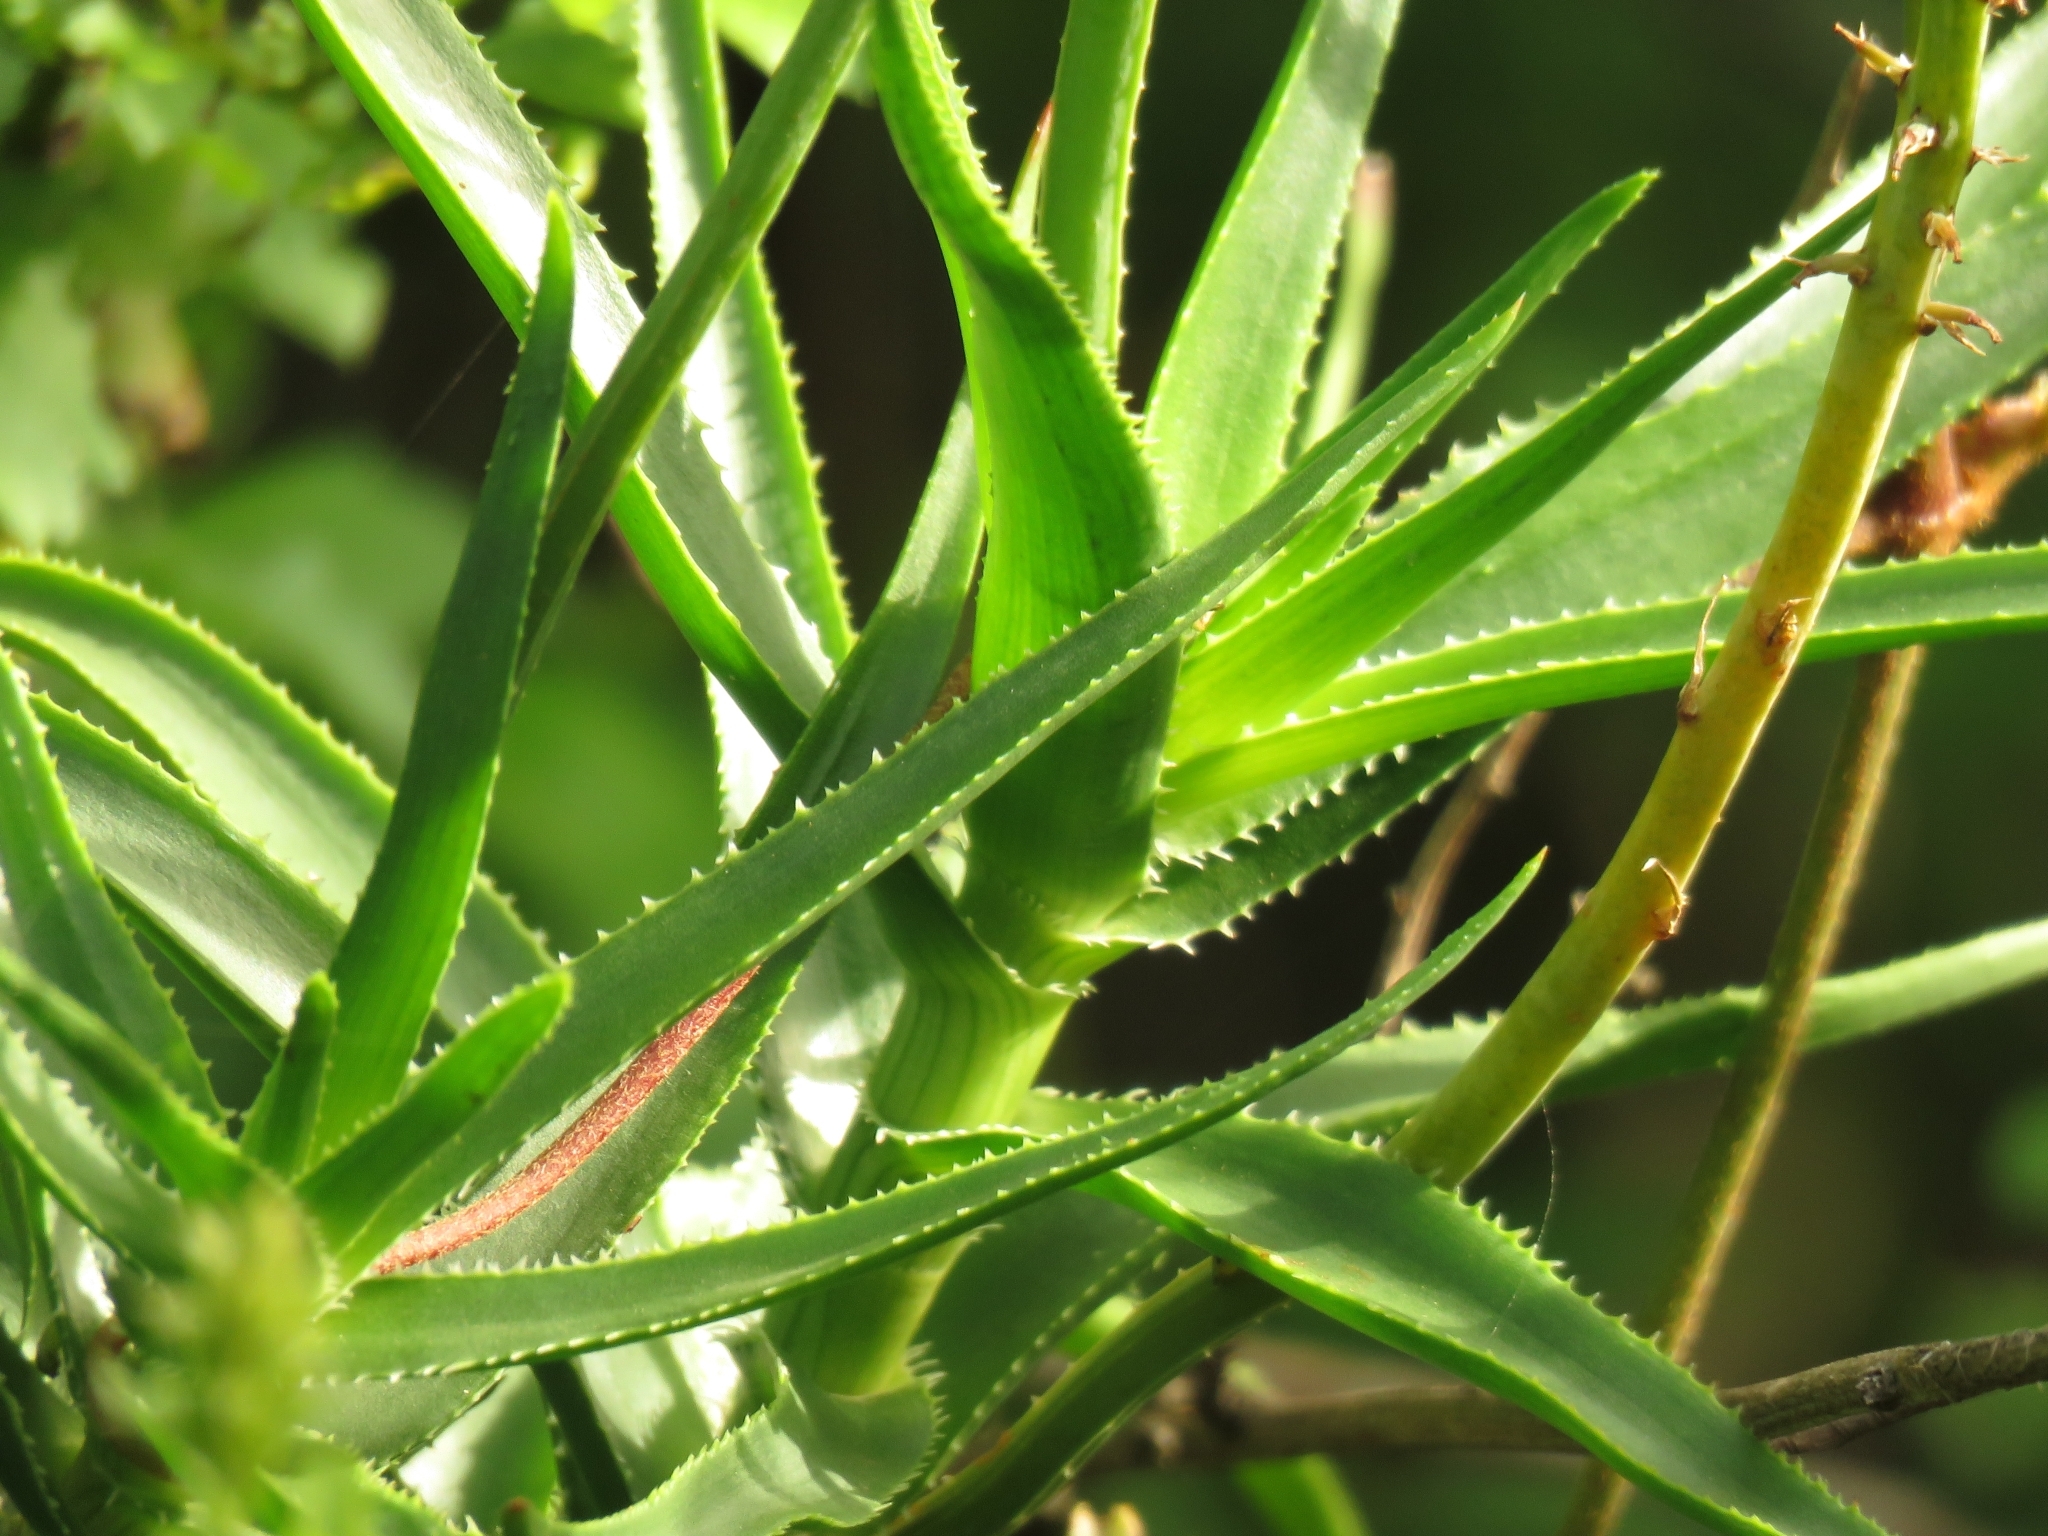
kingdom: Plantae
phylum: Tracheophyta
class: Liliopsida
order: Asparagales
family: Asphodelaceae
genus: Aloiampelos
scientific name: Aloiampelos ciliaris
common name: Climbing aloe
